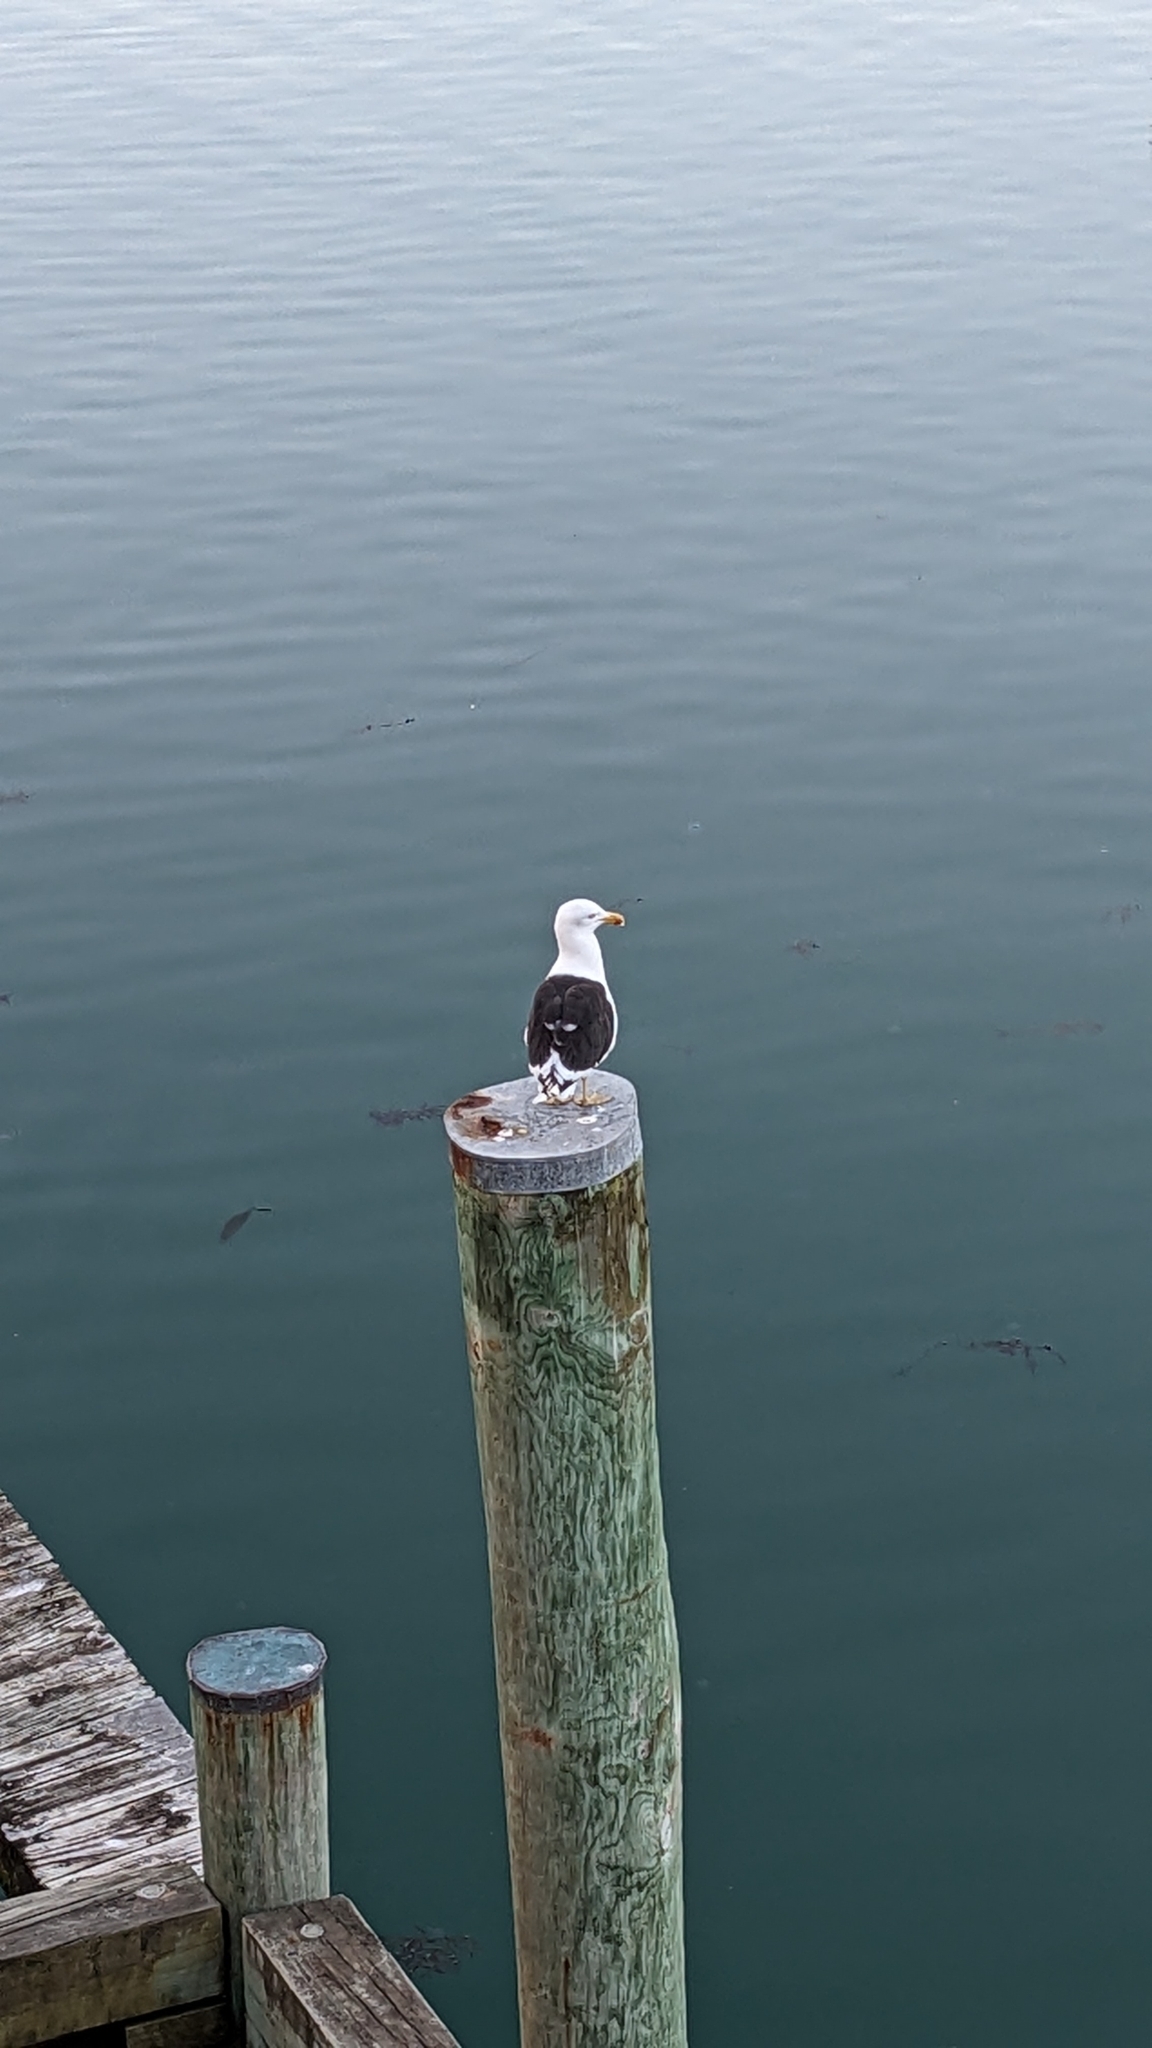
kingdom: Animalia
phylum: Chordata
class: Aves
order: Charadriiformes
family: Laridae
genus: Larus
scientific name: Larus dominicanus
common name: Kelp gull
